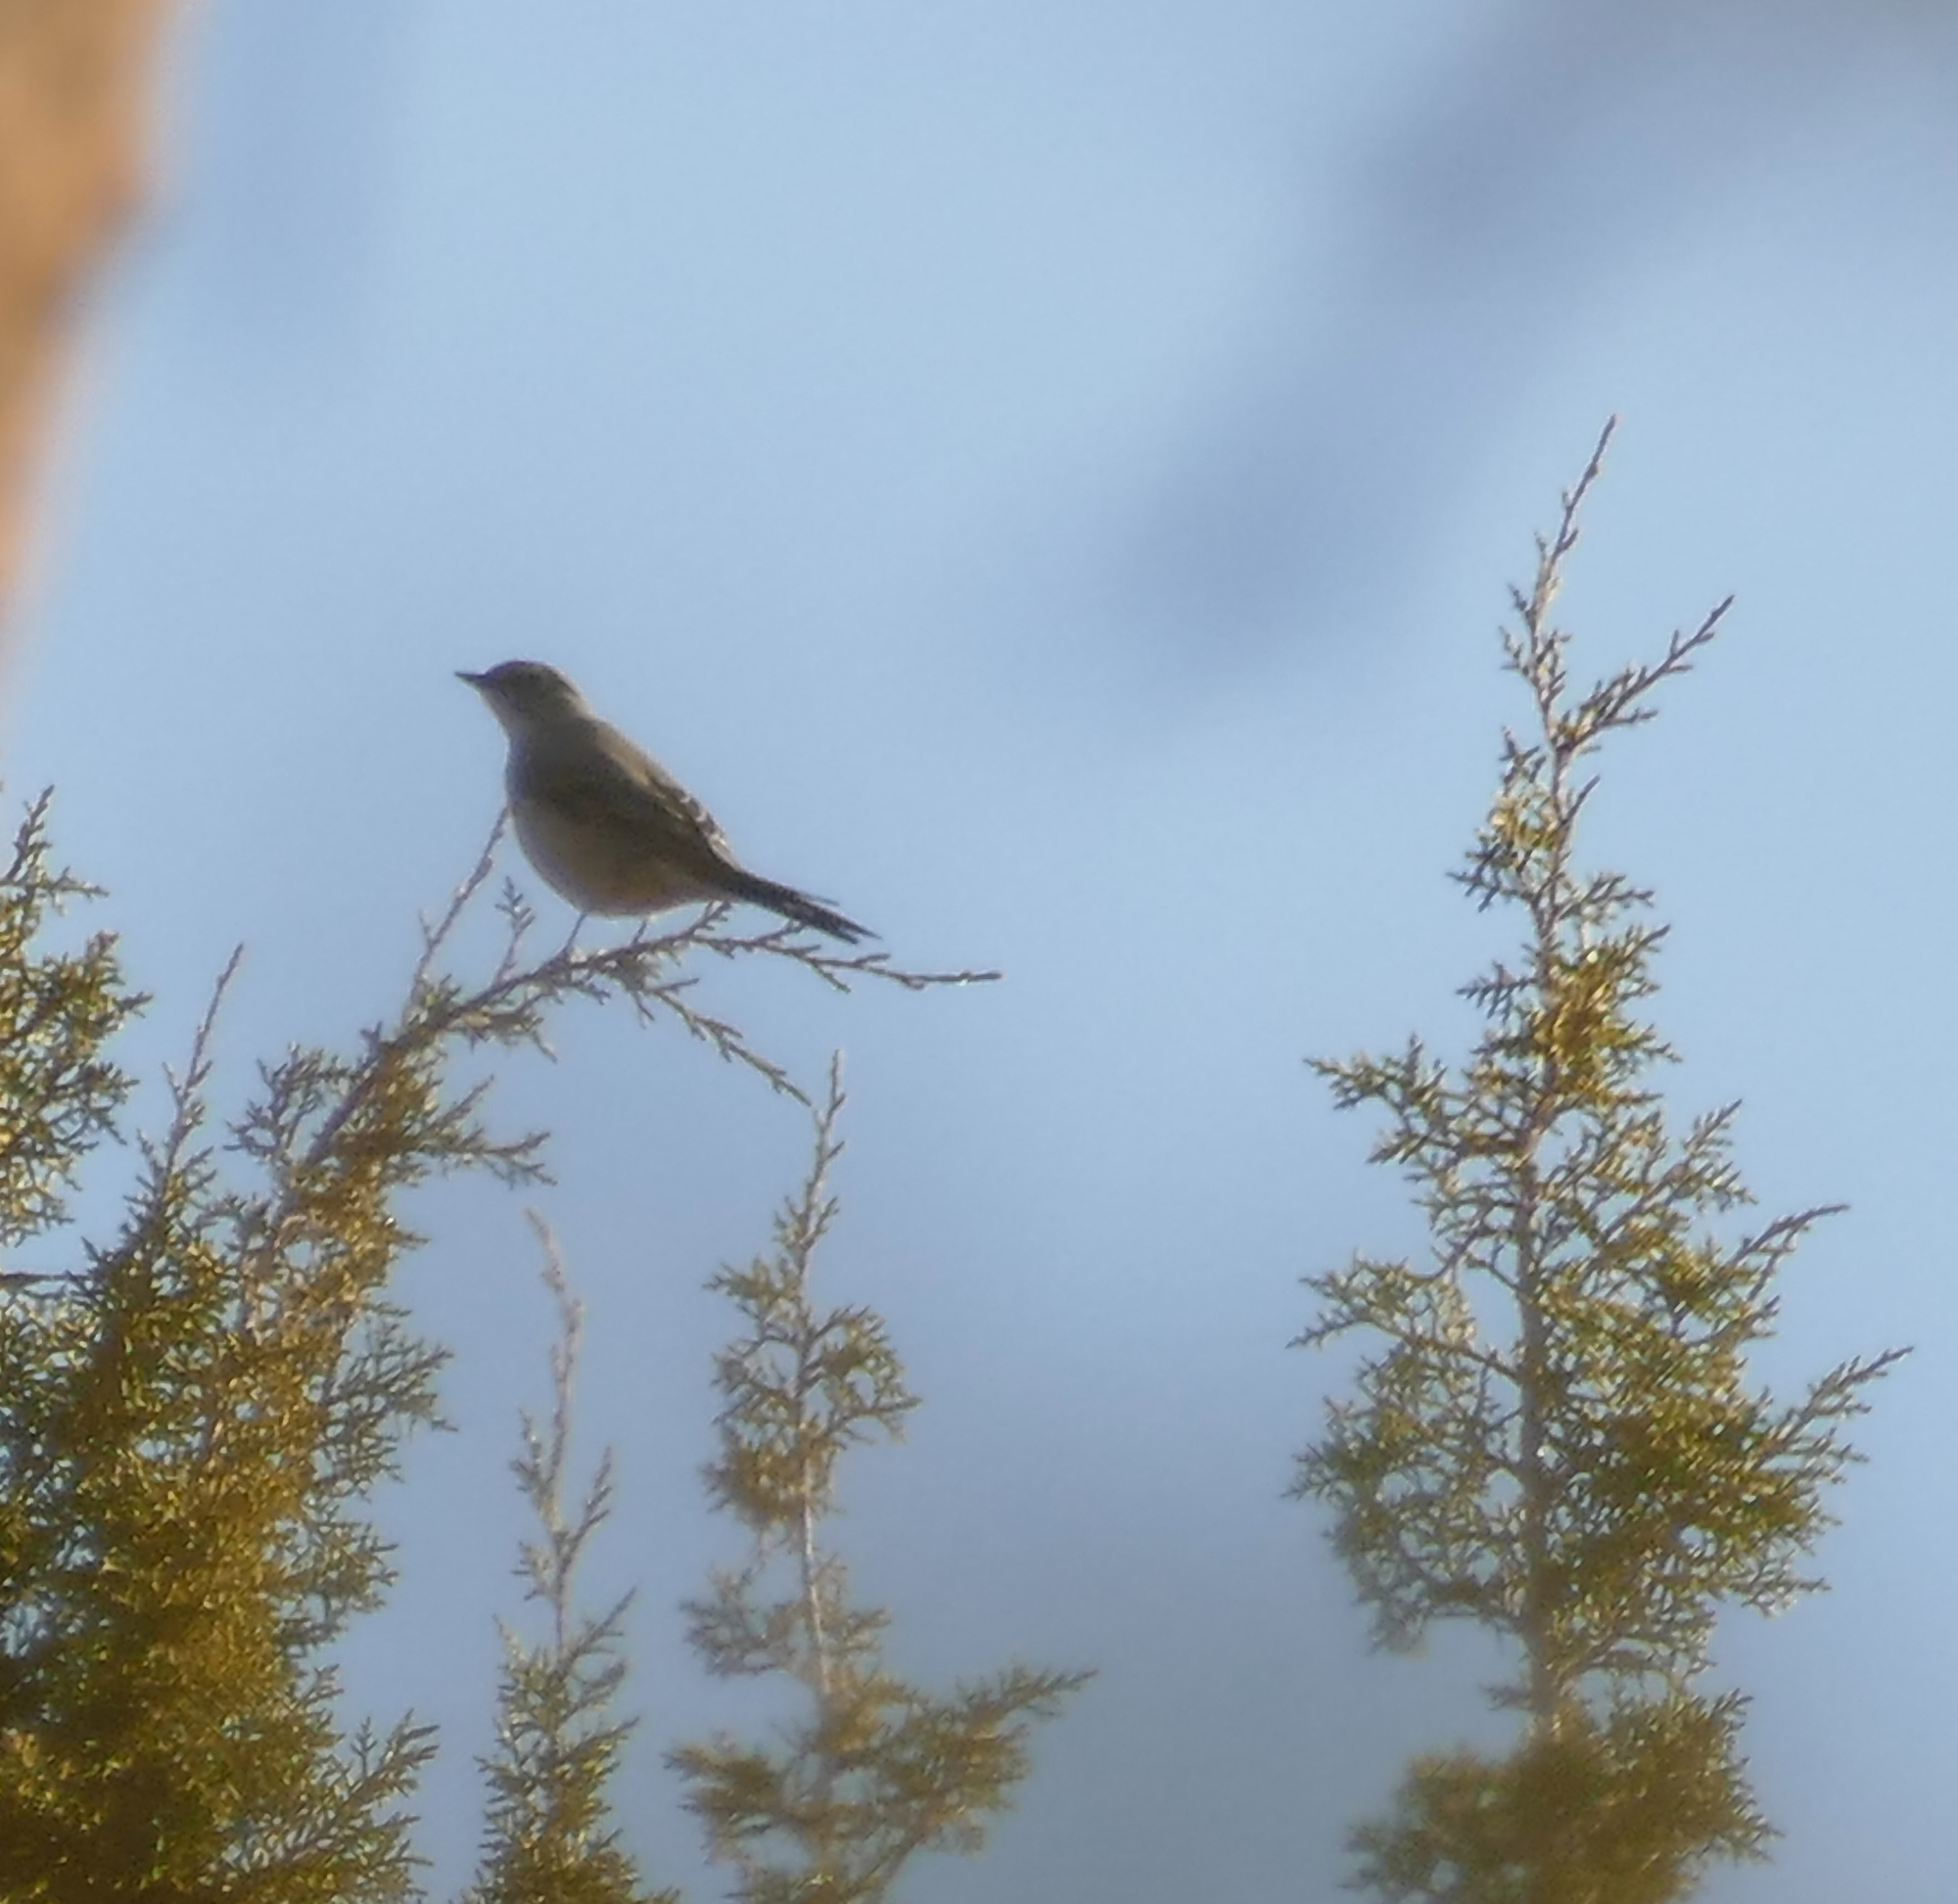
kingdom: Animalia
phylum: Chordata
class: Aves
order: Passeriformes
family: Turdidae
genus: Myadestes
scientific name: Myadestes townsendi
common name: Townsend's solitaire
